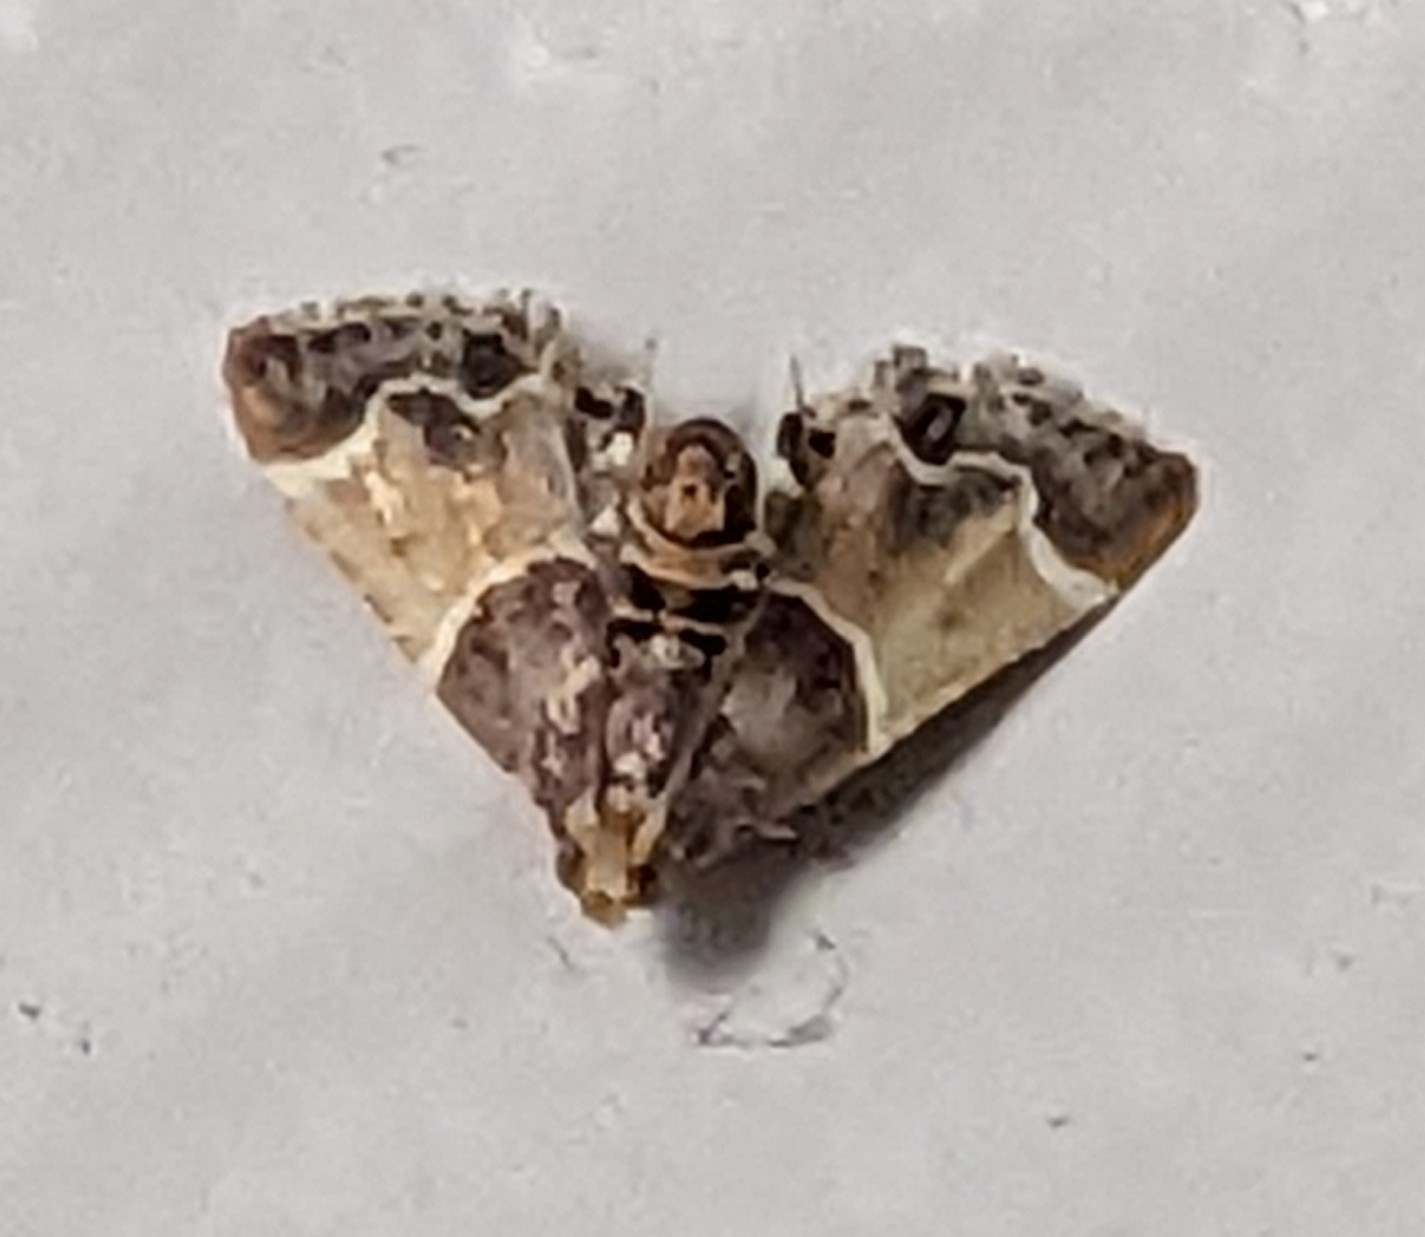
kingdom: Animalia
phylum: Arthropoda
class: Insecta
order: Lepidoptera
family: Pyralidae
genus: Pyralis
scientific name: Pyralis farinalis
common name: Meal moth
